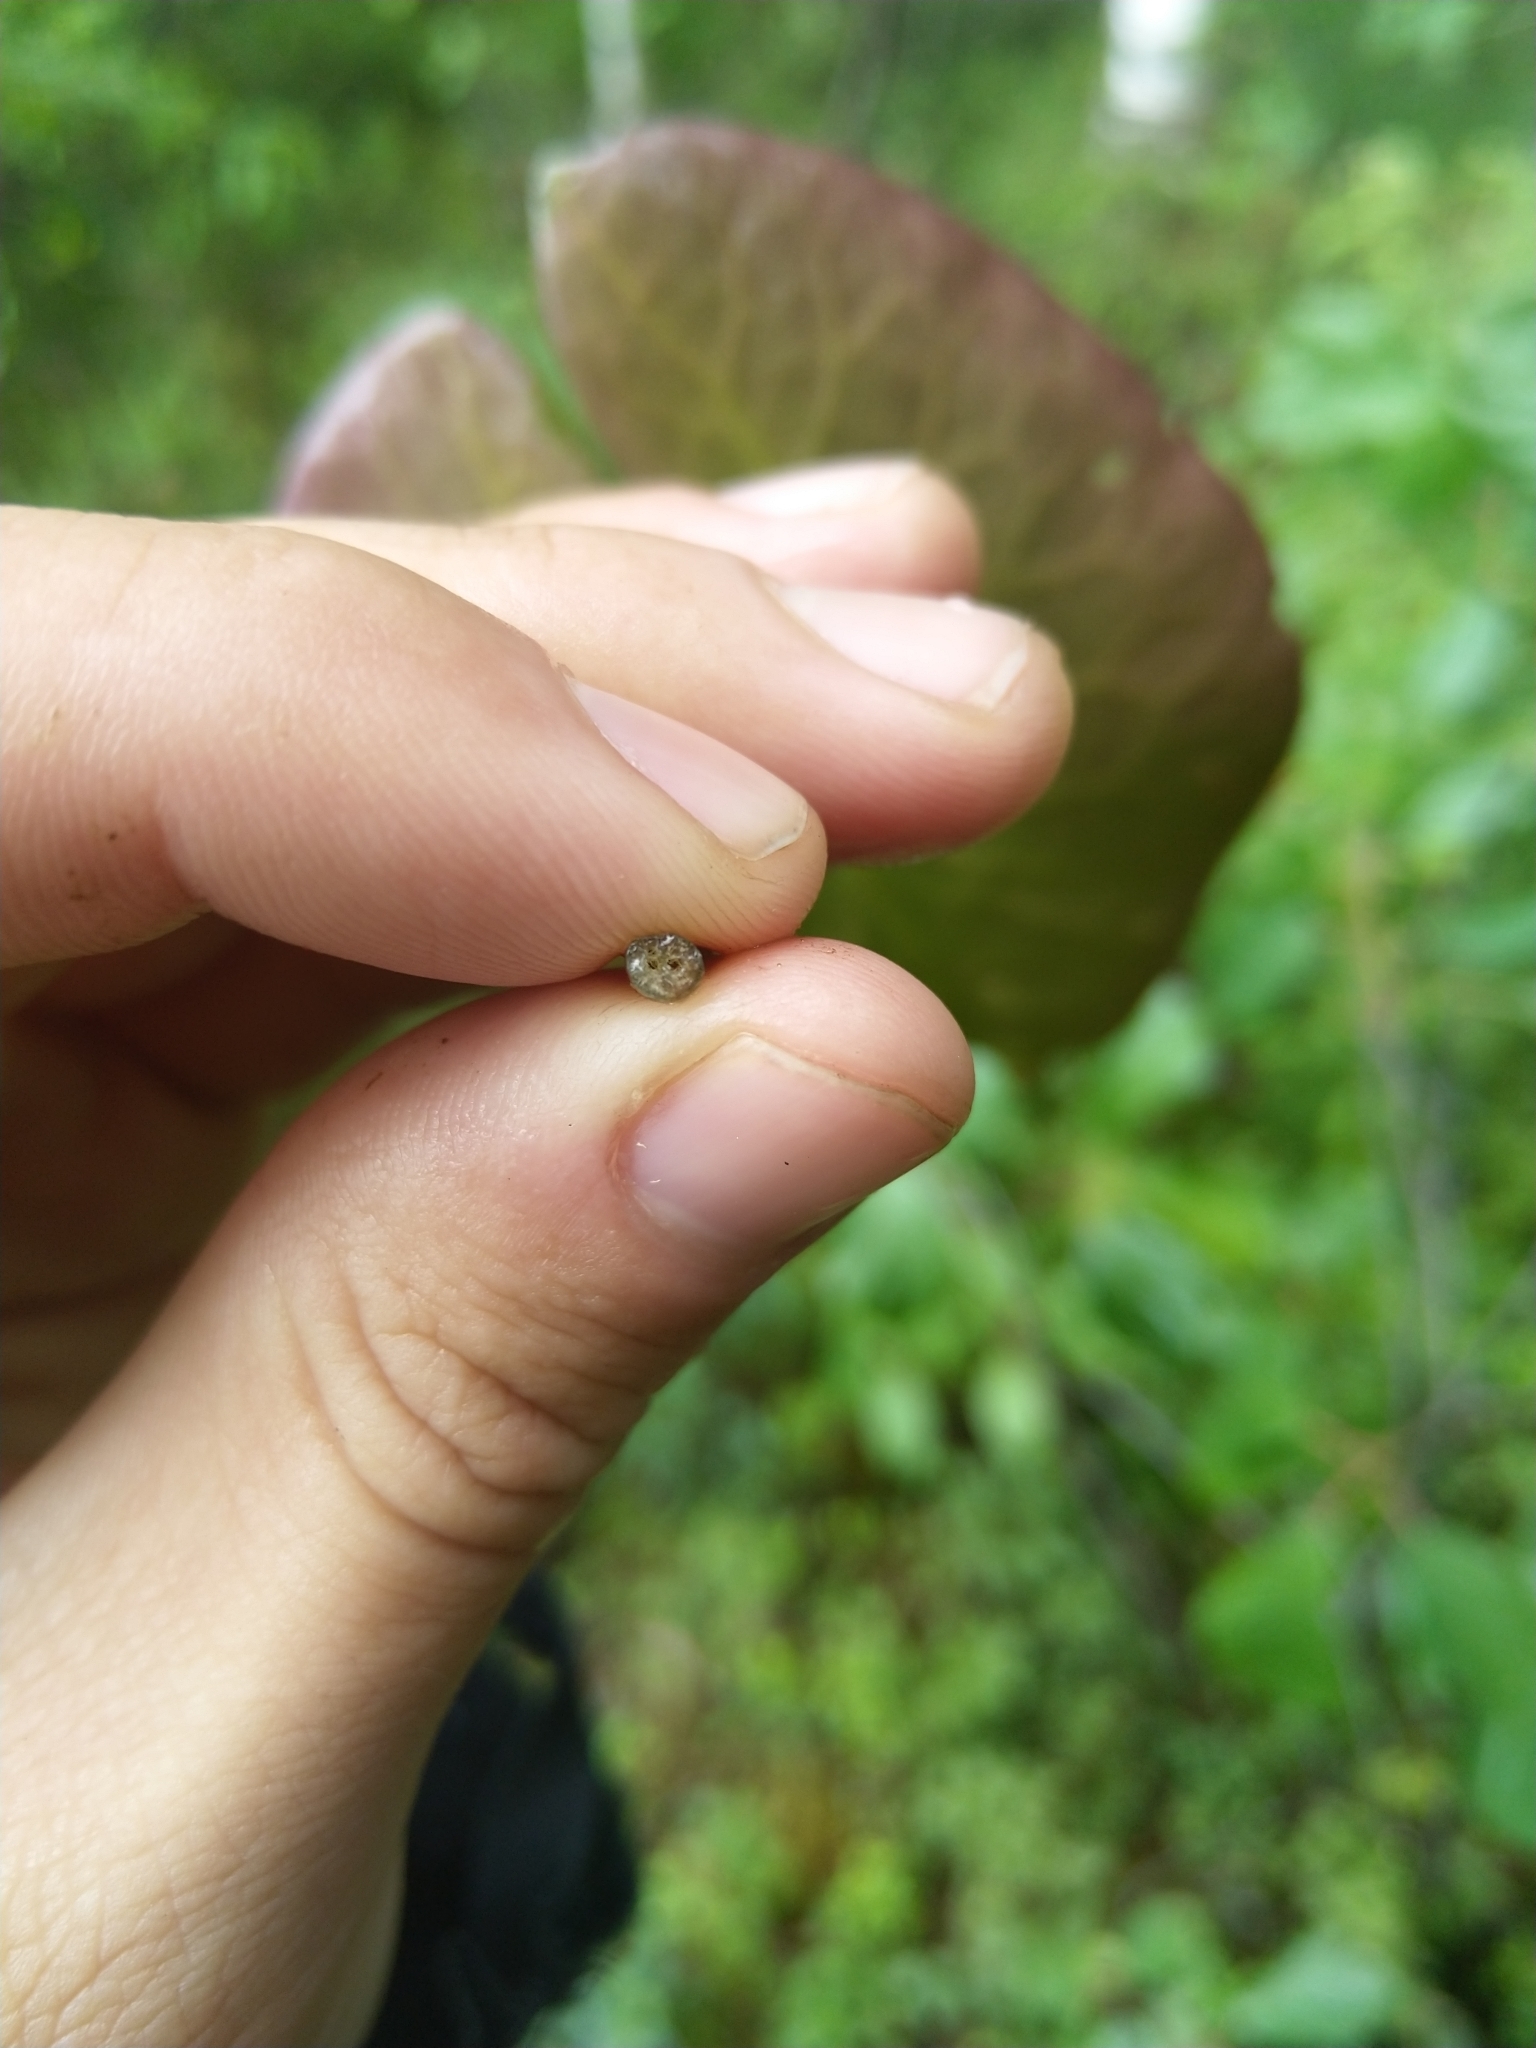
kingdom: Plantae
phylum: Tracheophyta
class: Magnoliopsida
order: Nymphaeales
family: Nymphaeaceae
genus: Nymphaea
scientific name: Nymphaea tetragona
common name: Pygmy water-lily
